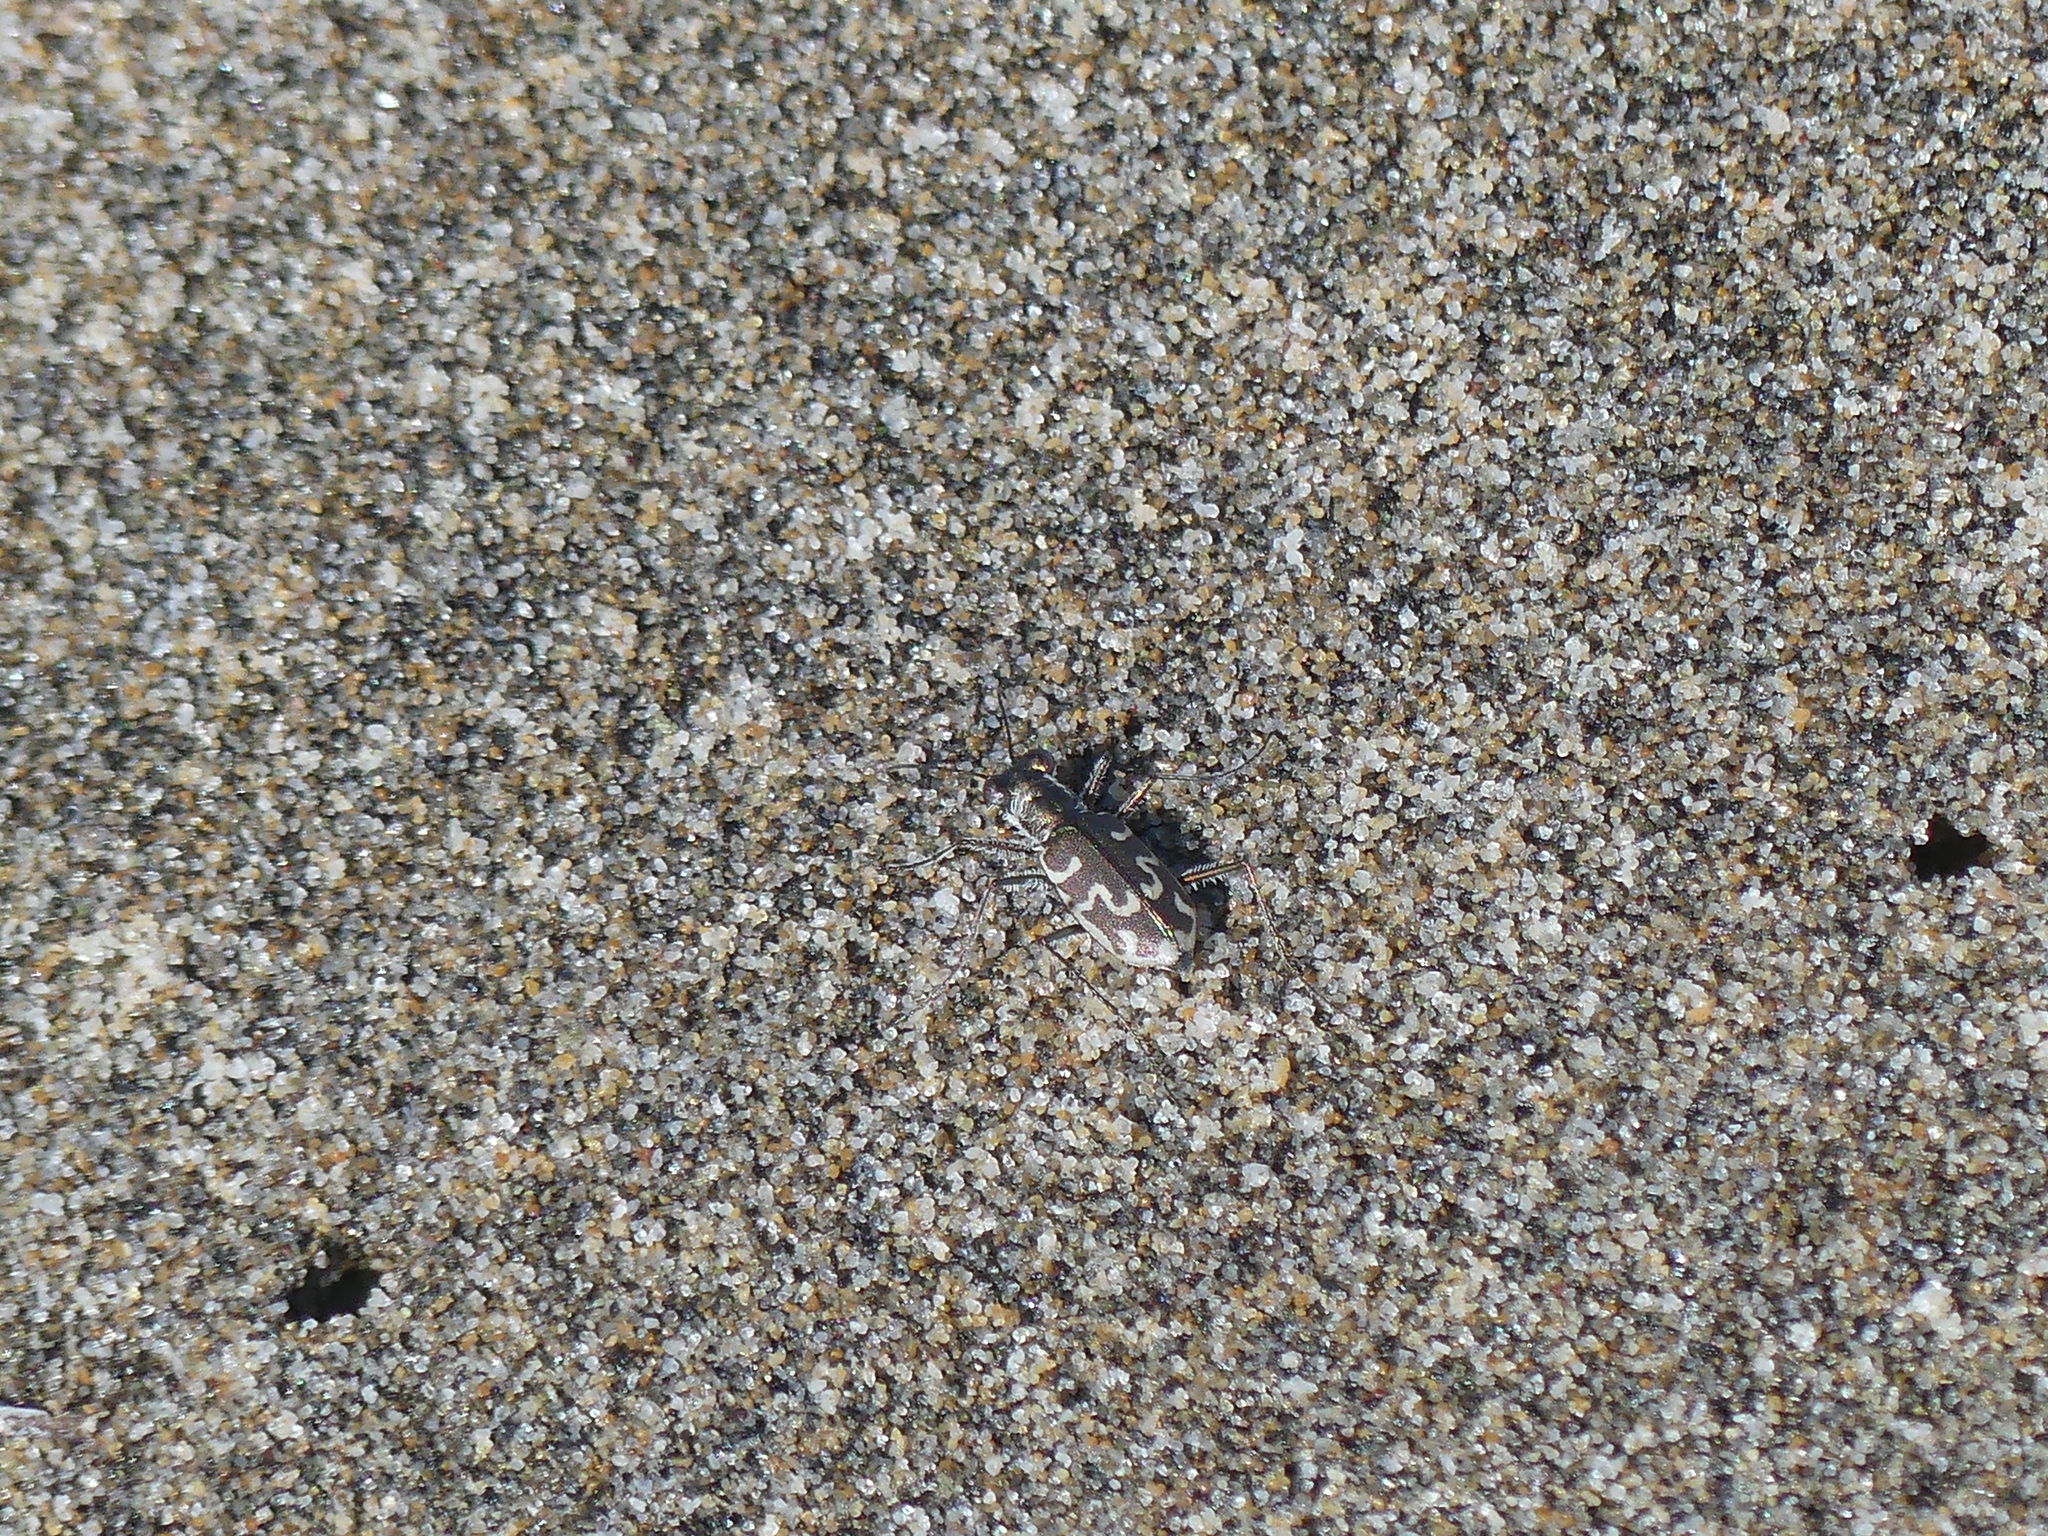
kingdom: Animalia
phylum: Arthropoda
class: Insecta
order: Coleoptera
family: Carabidae
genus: Cylindera
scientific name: Cylindera trisignata
